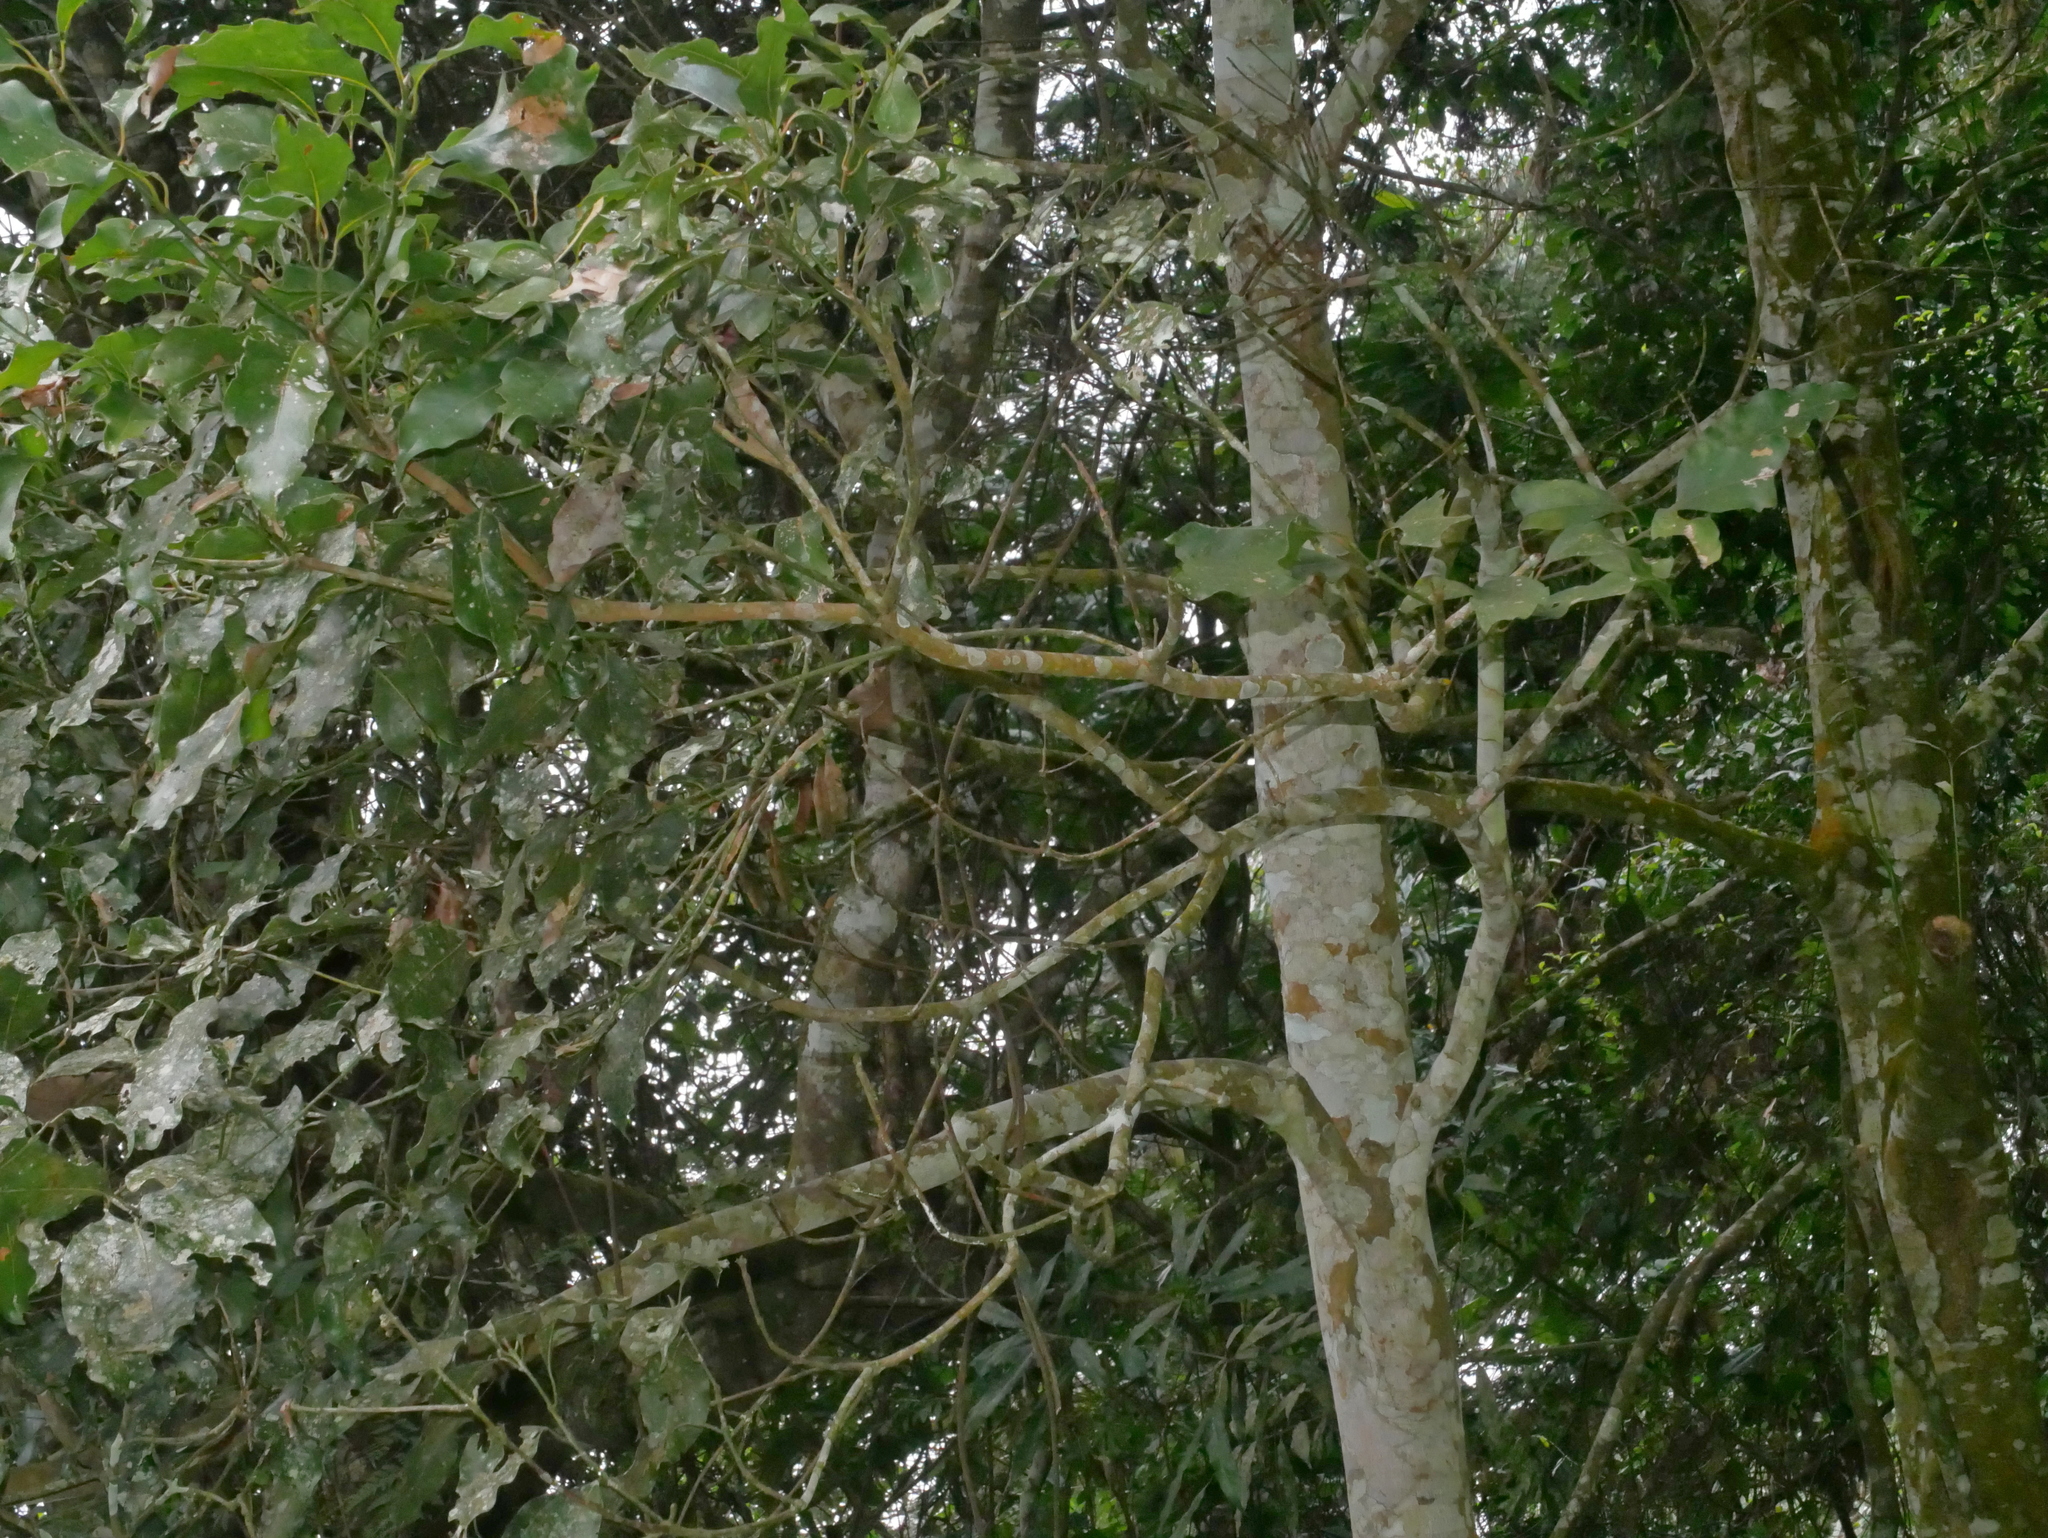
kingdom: Plantae
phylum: Tracheophyta
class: Magnoliopsida
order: Laurales
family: Lauraceae
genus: Beilschmiedia
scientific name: Beilschmiedia erythrophloia
